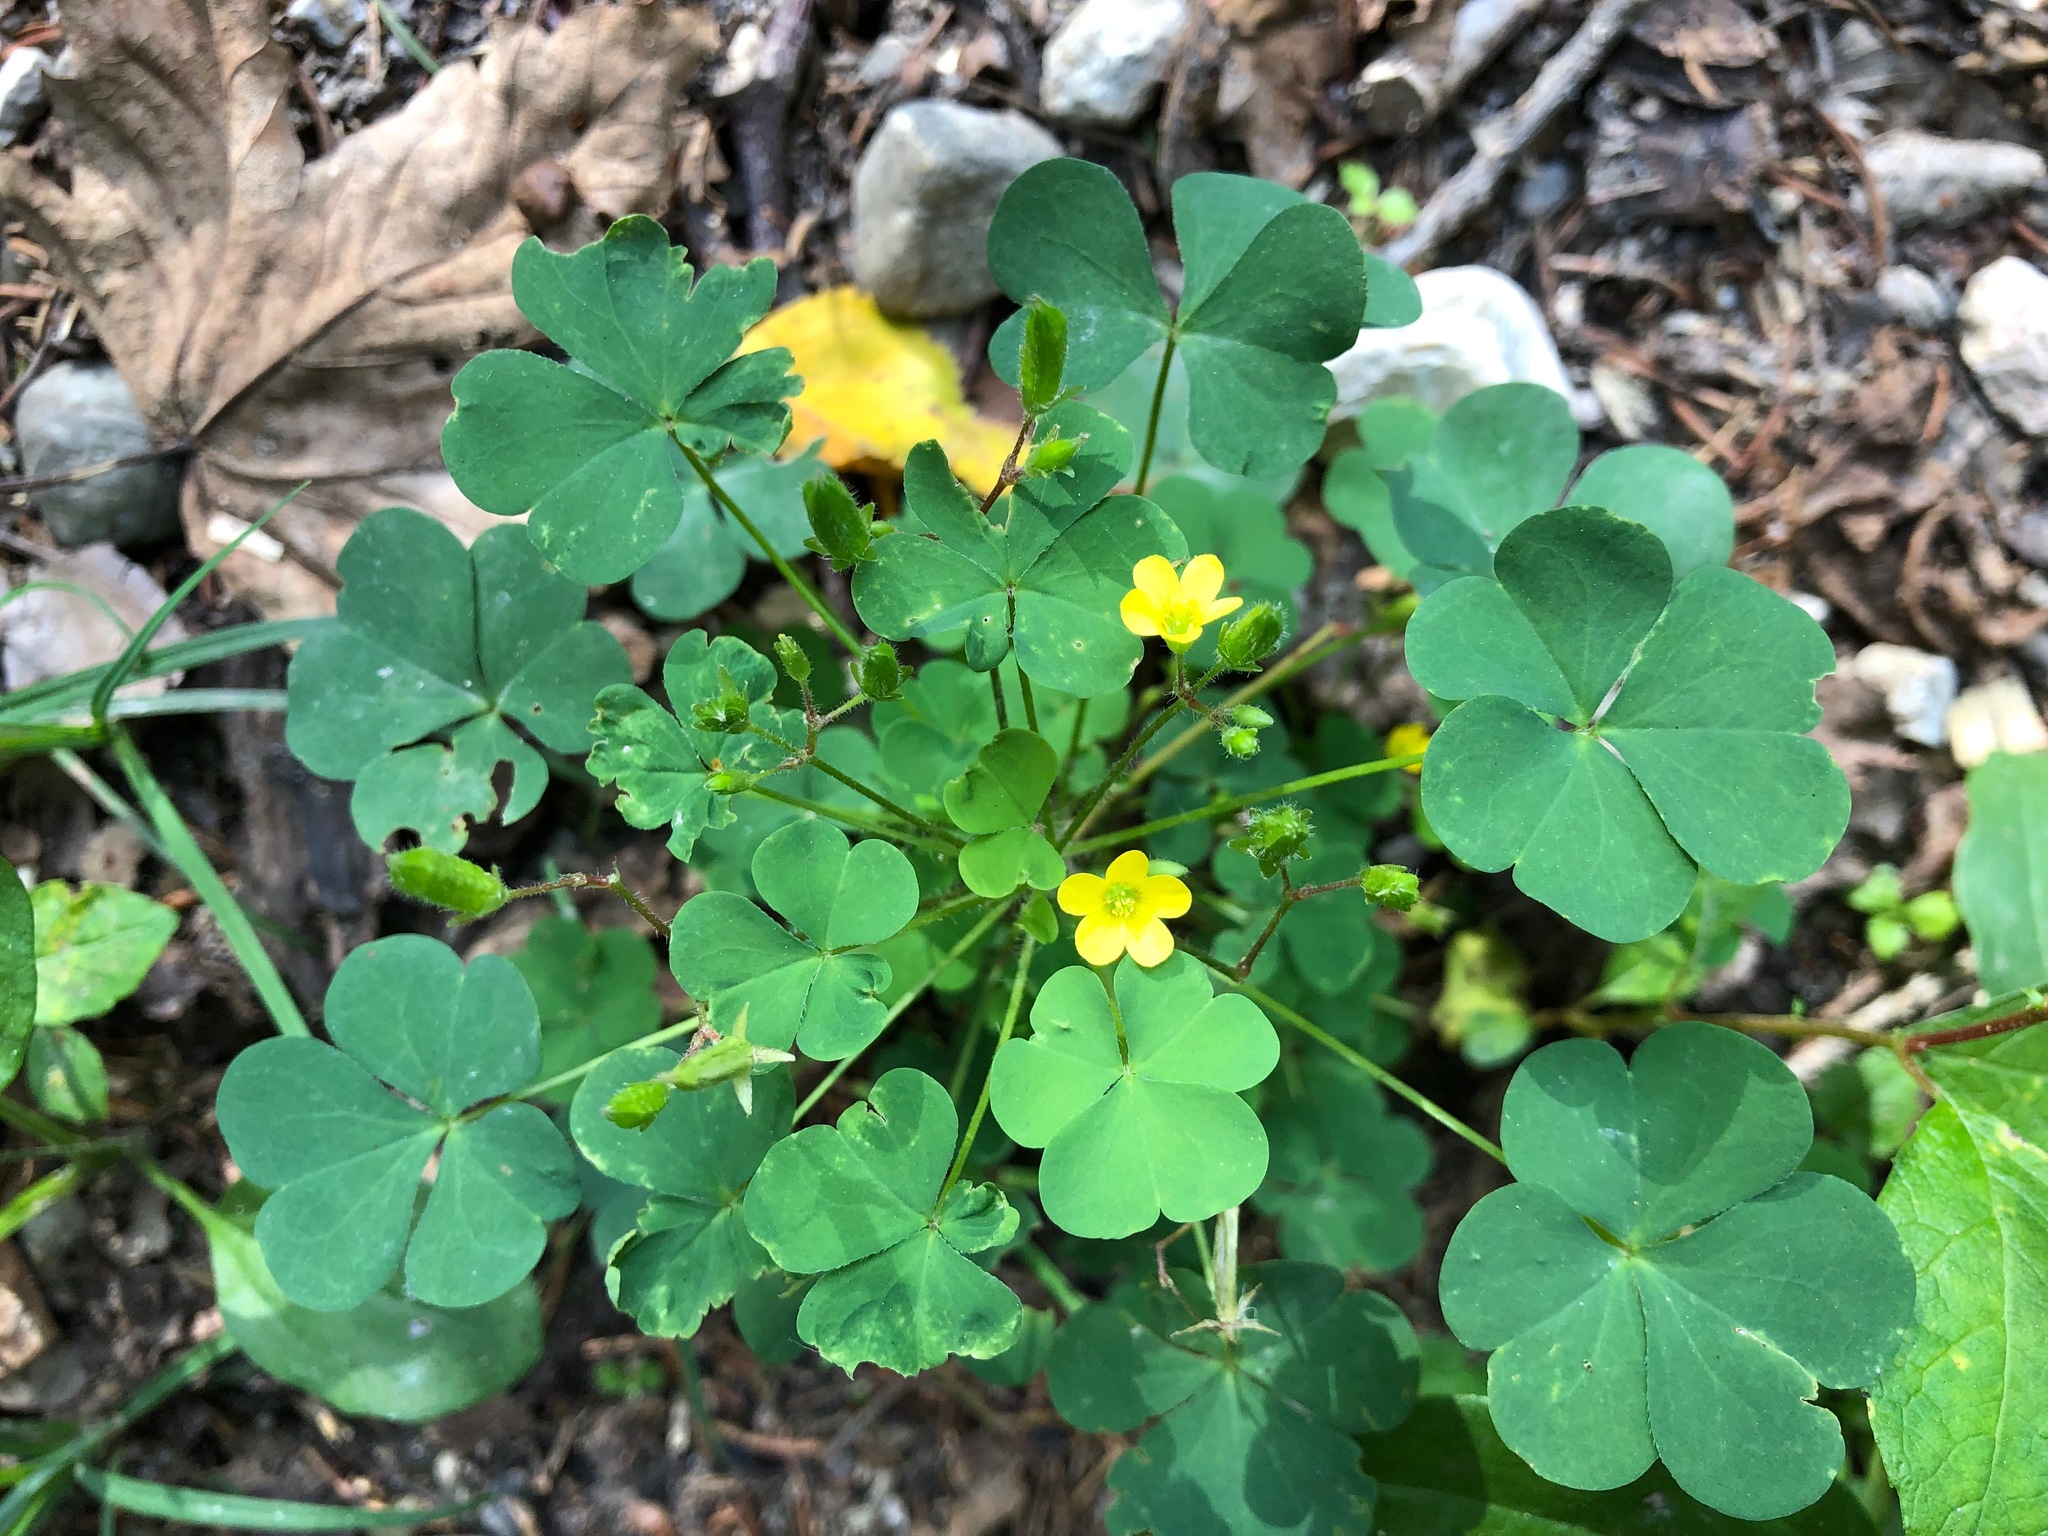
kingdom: Plantae
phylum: Tracheophyta
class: Magnoliopsida
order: Oxalidales
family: Oxalidaceae
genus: Oxalis
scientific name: Oxalis stricta
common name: Upright yellow-sorrel
